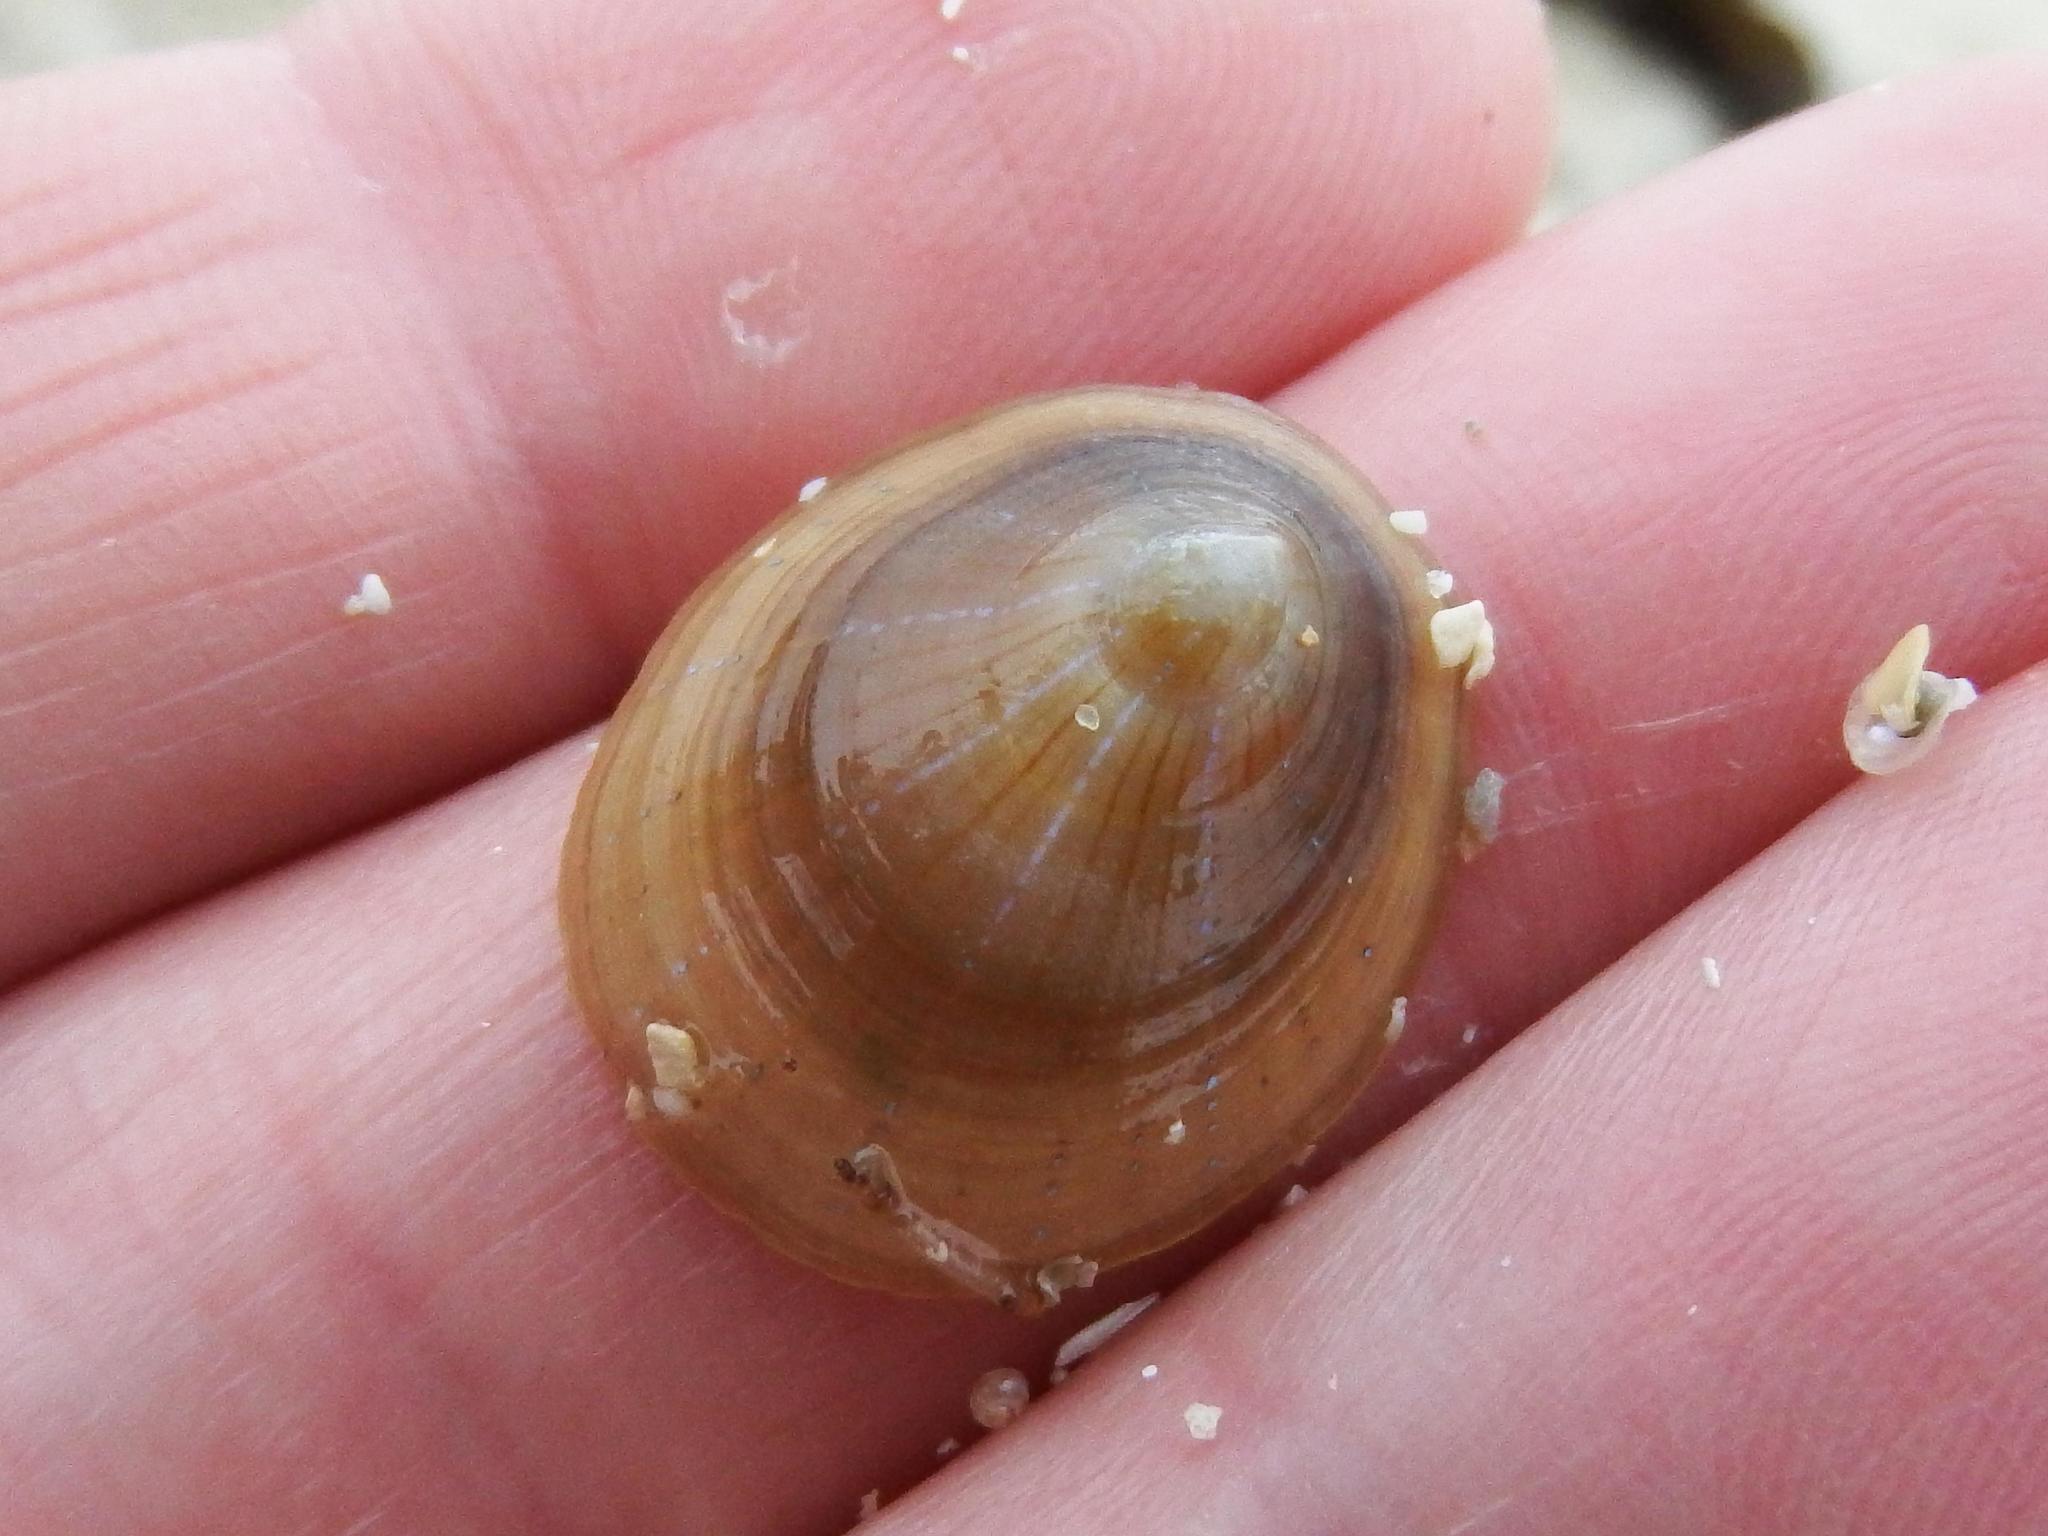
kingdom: Animalia
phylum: Mollusca
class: Gastropoda
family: Patellidae
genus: Patella
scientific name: Patella pellucida
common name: Blue-rayed limpet
